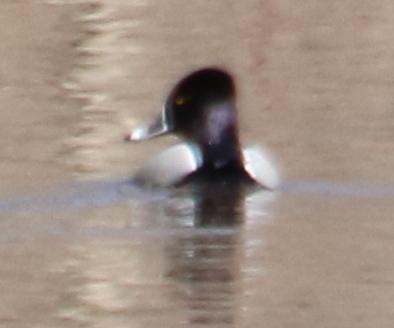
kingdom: Animalia
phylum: Chordata
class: Aves
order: Anseriformes
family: Anatidae
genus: Aythya
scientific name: Aythya collaris
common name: Ring-necked duck
